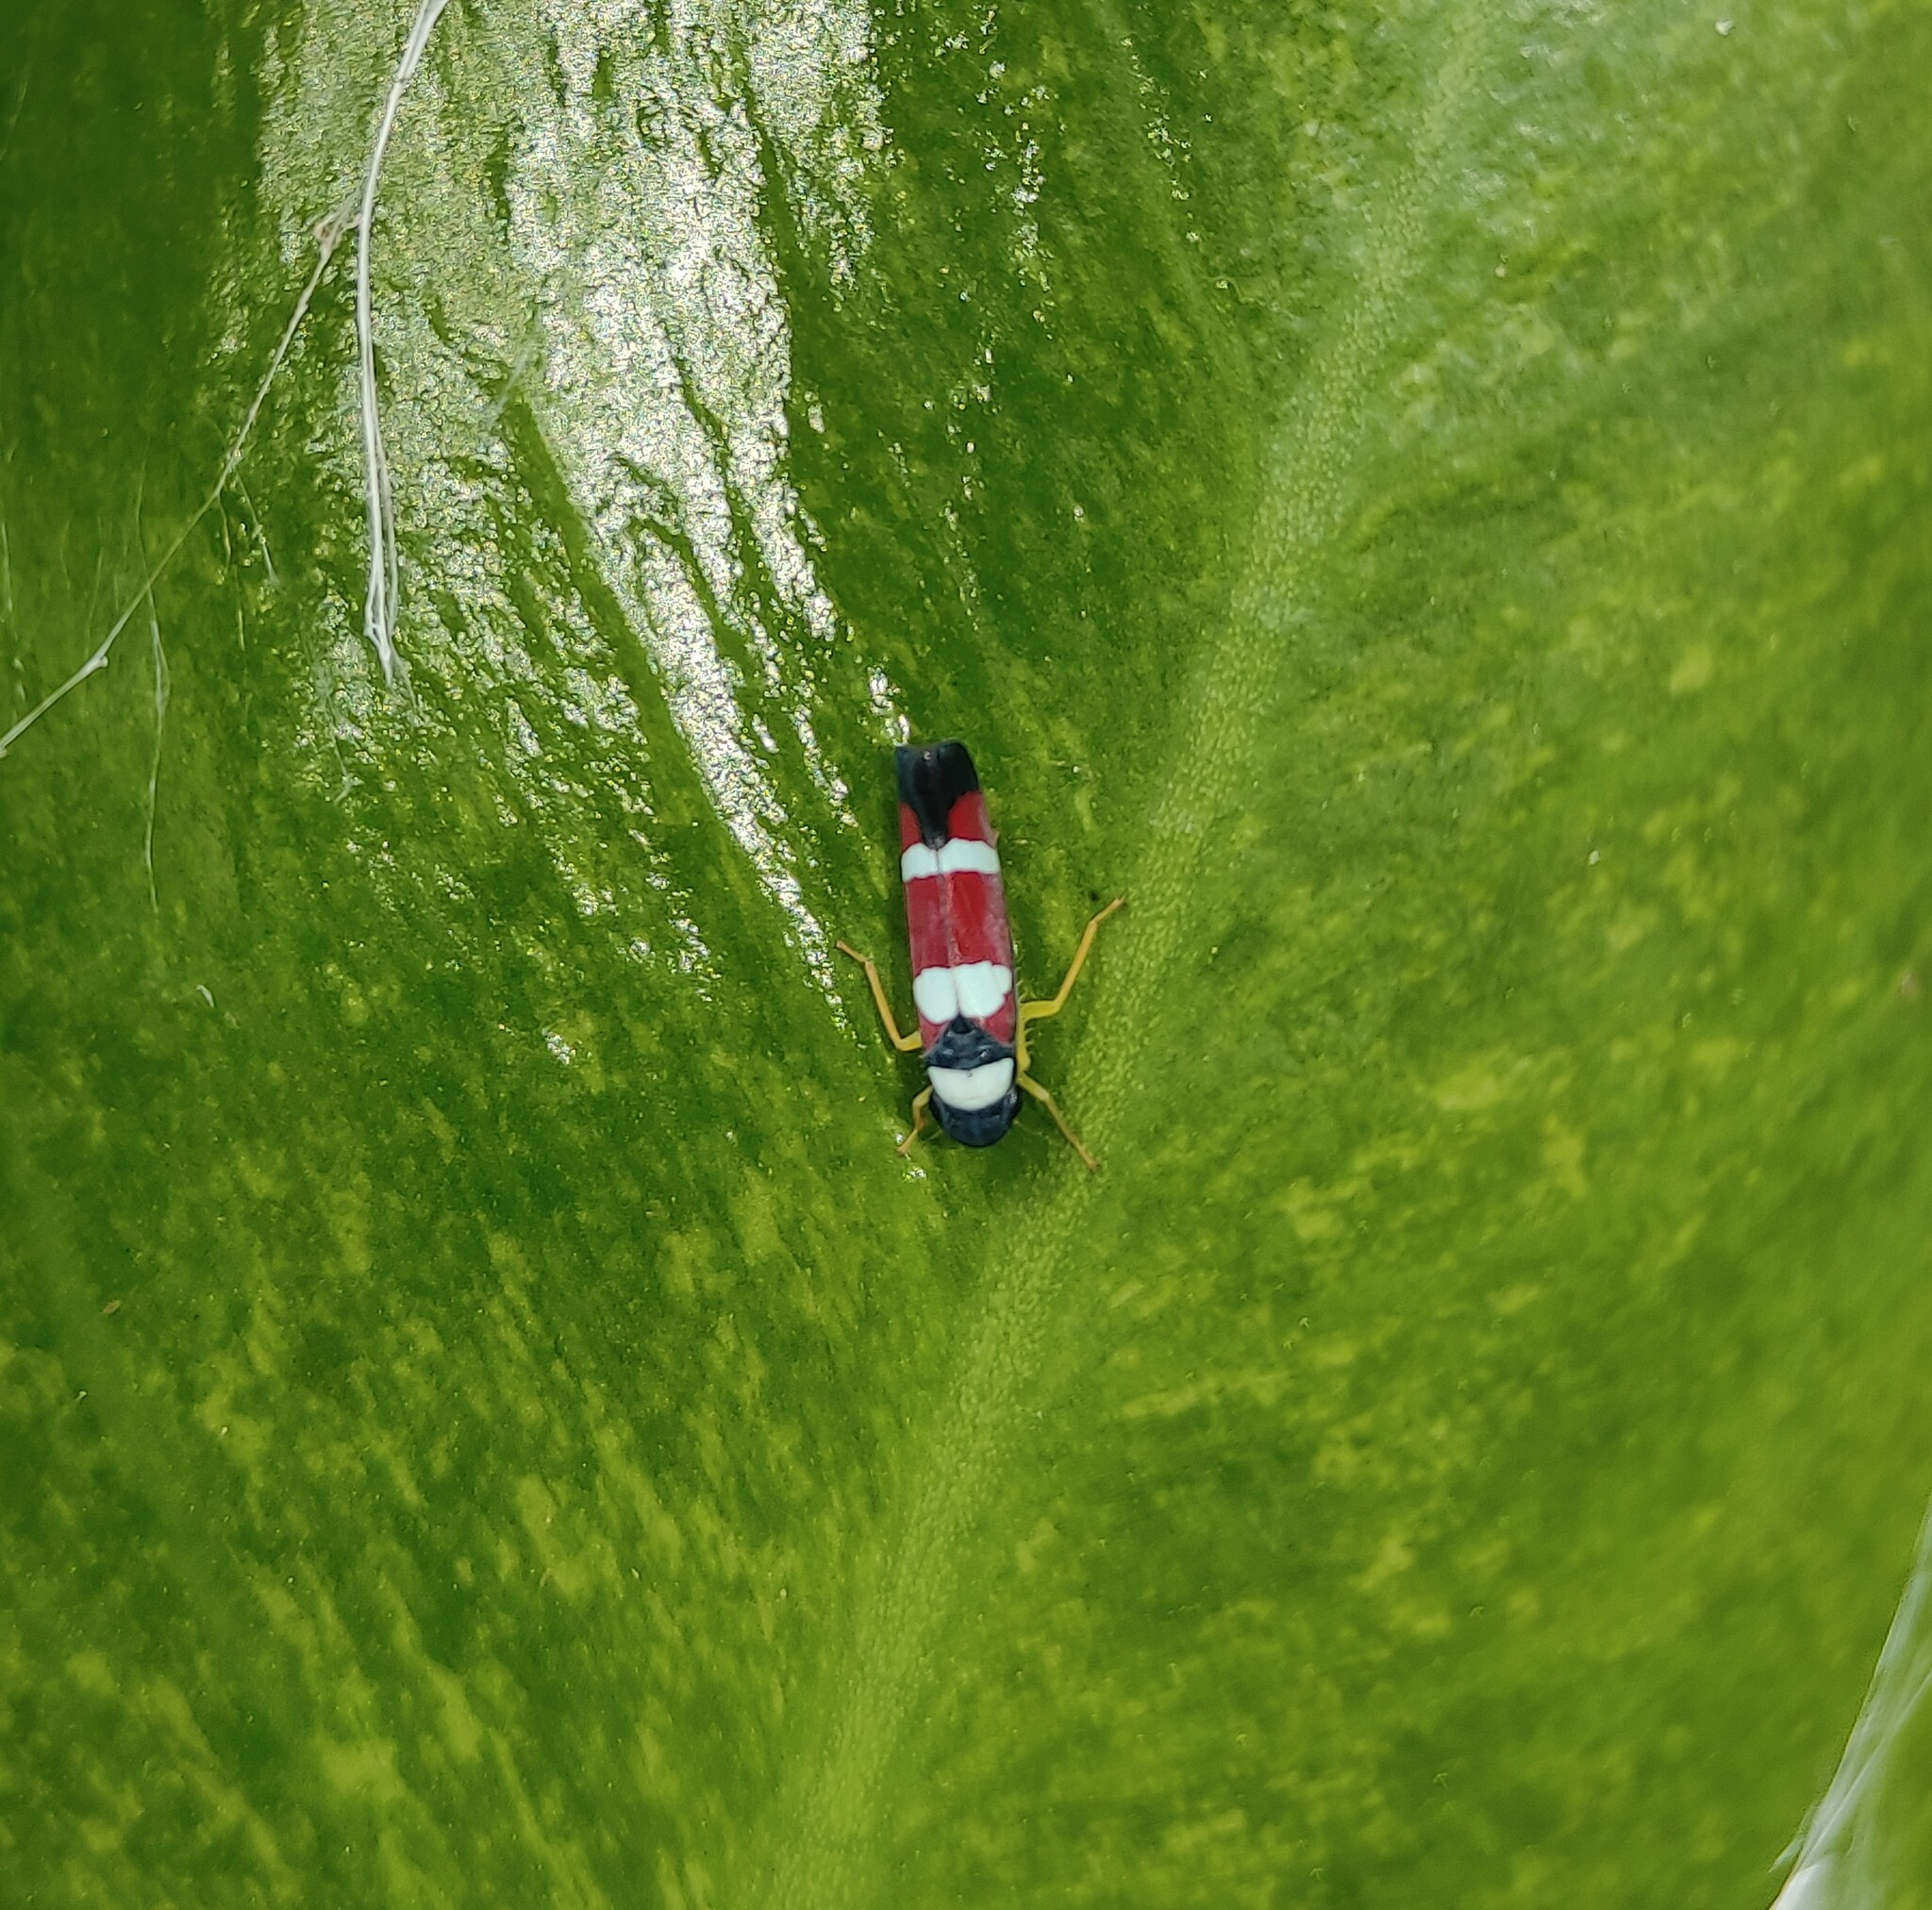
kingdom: Animalia
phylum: Arthropoda
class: Insecta
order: Hemiptera
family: Cicadellidae
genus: Erythrogonia
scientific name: Erythrogonia phoenicea
